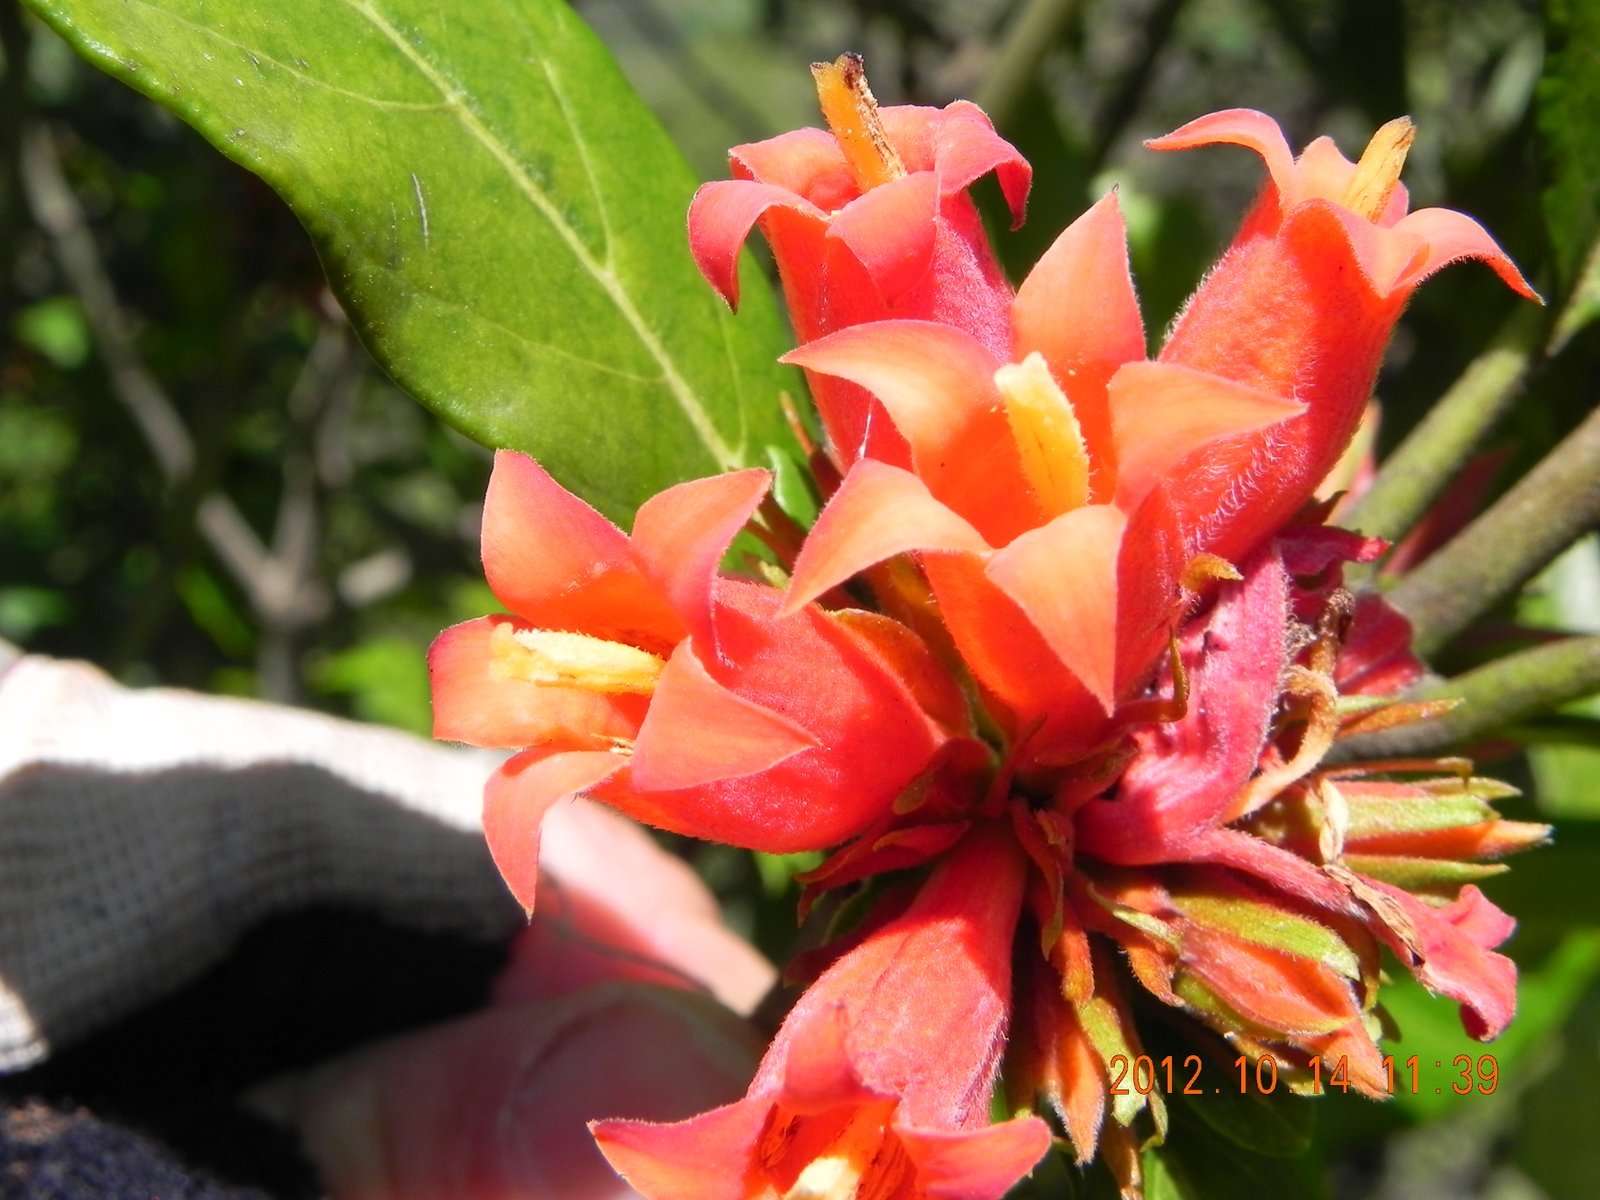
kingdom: Plantae
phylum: Tracheophyta
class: Magnoliopsida
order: Gentianales
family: Rubiaceae
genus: Burchellia
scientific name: Burchellia bubalina
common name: Wild pomegranate
